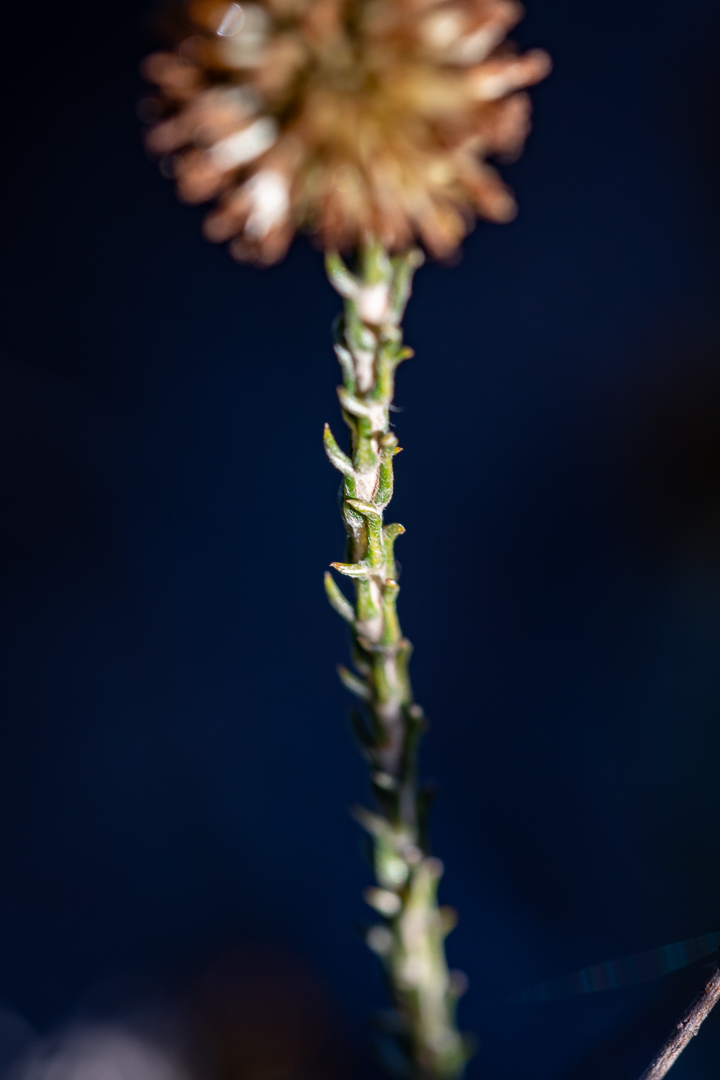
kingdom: Plantae
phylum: Tracheophyta
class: Magnoliopsida
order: Asterales
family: Asteraceae
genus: Seriphium
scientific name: Seriphium spirale
